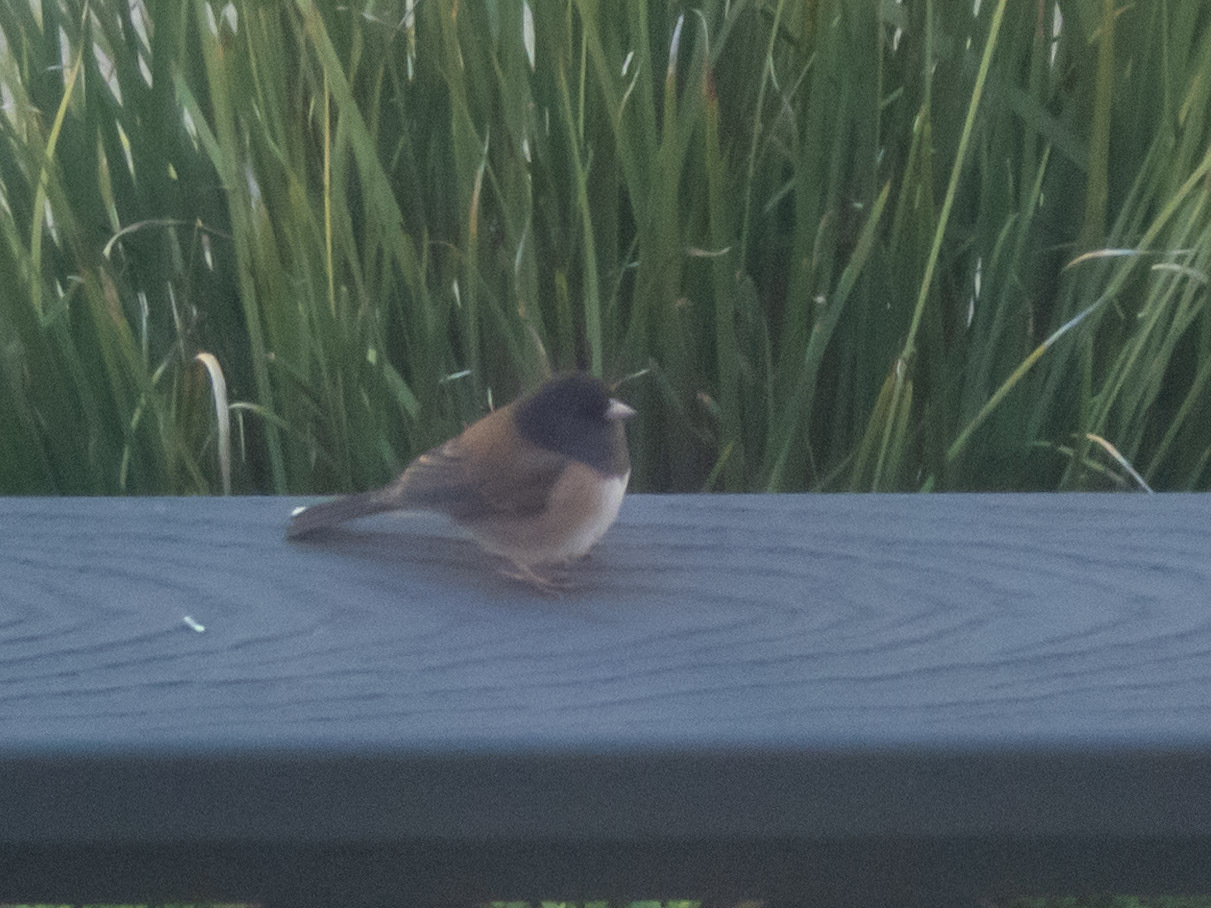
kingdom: Animalia
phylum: Chordata
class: Aves
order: Passeriformes
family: Passerellidae
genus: Junco
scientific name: Junco hyemalis
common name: Dark-eyed junco
